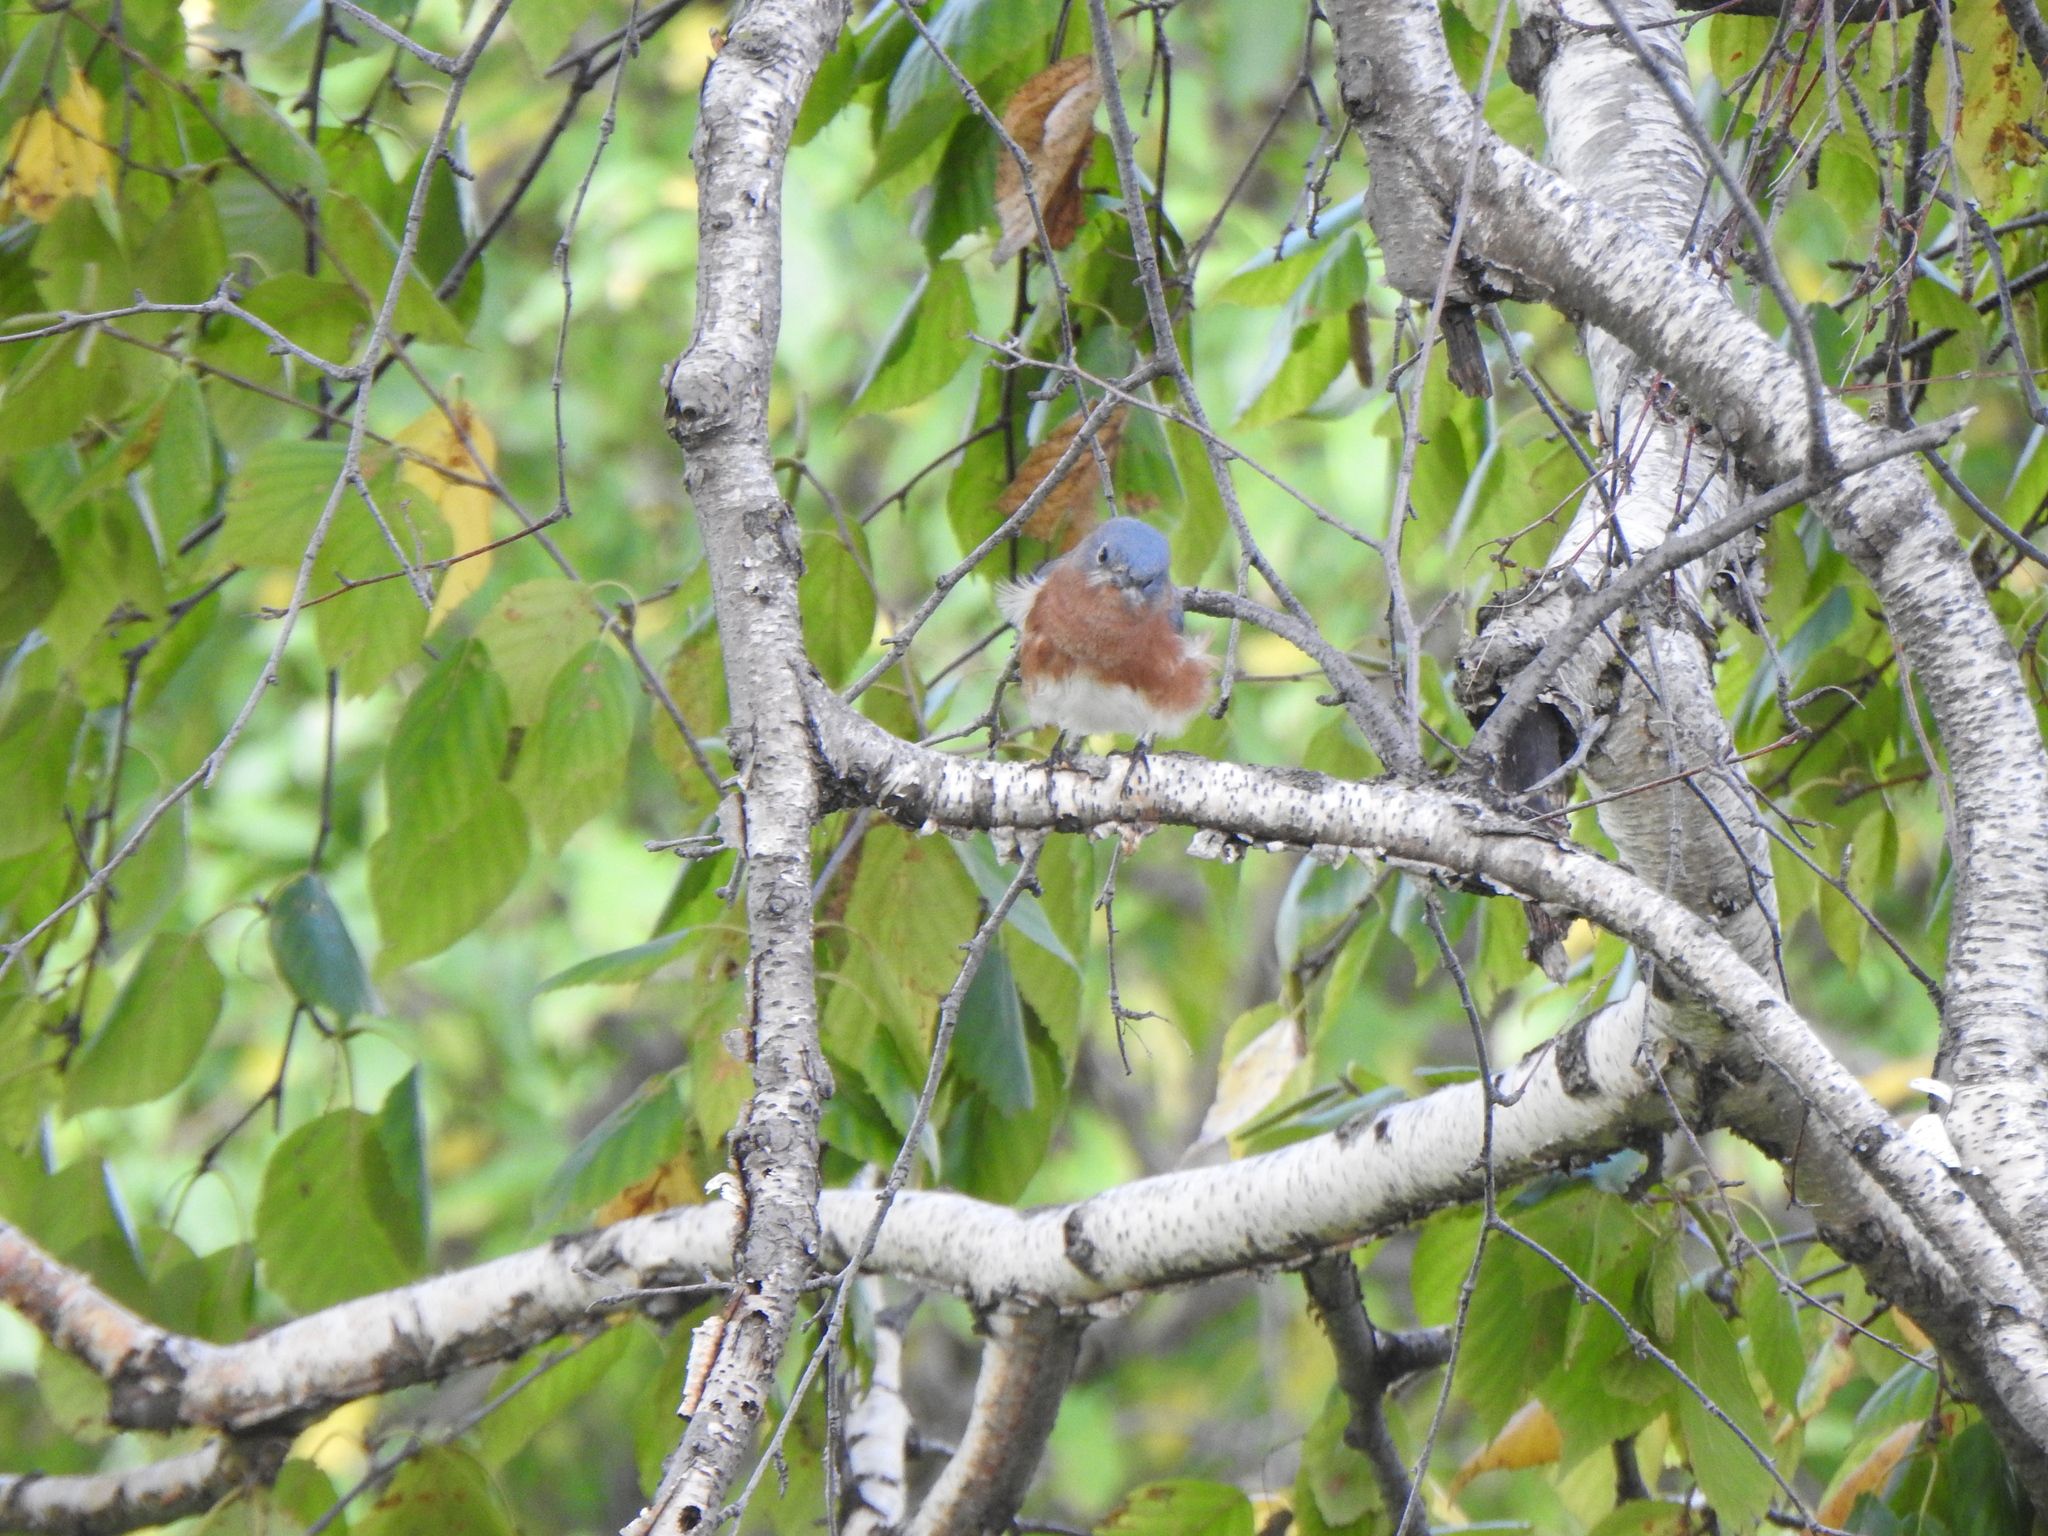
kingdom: Animalia
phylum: Chordata
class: Aves
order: Passeriformes
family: Turdidae
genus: Sialia
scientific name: Sialia sialis
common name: Eastern bluebird
